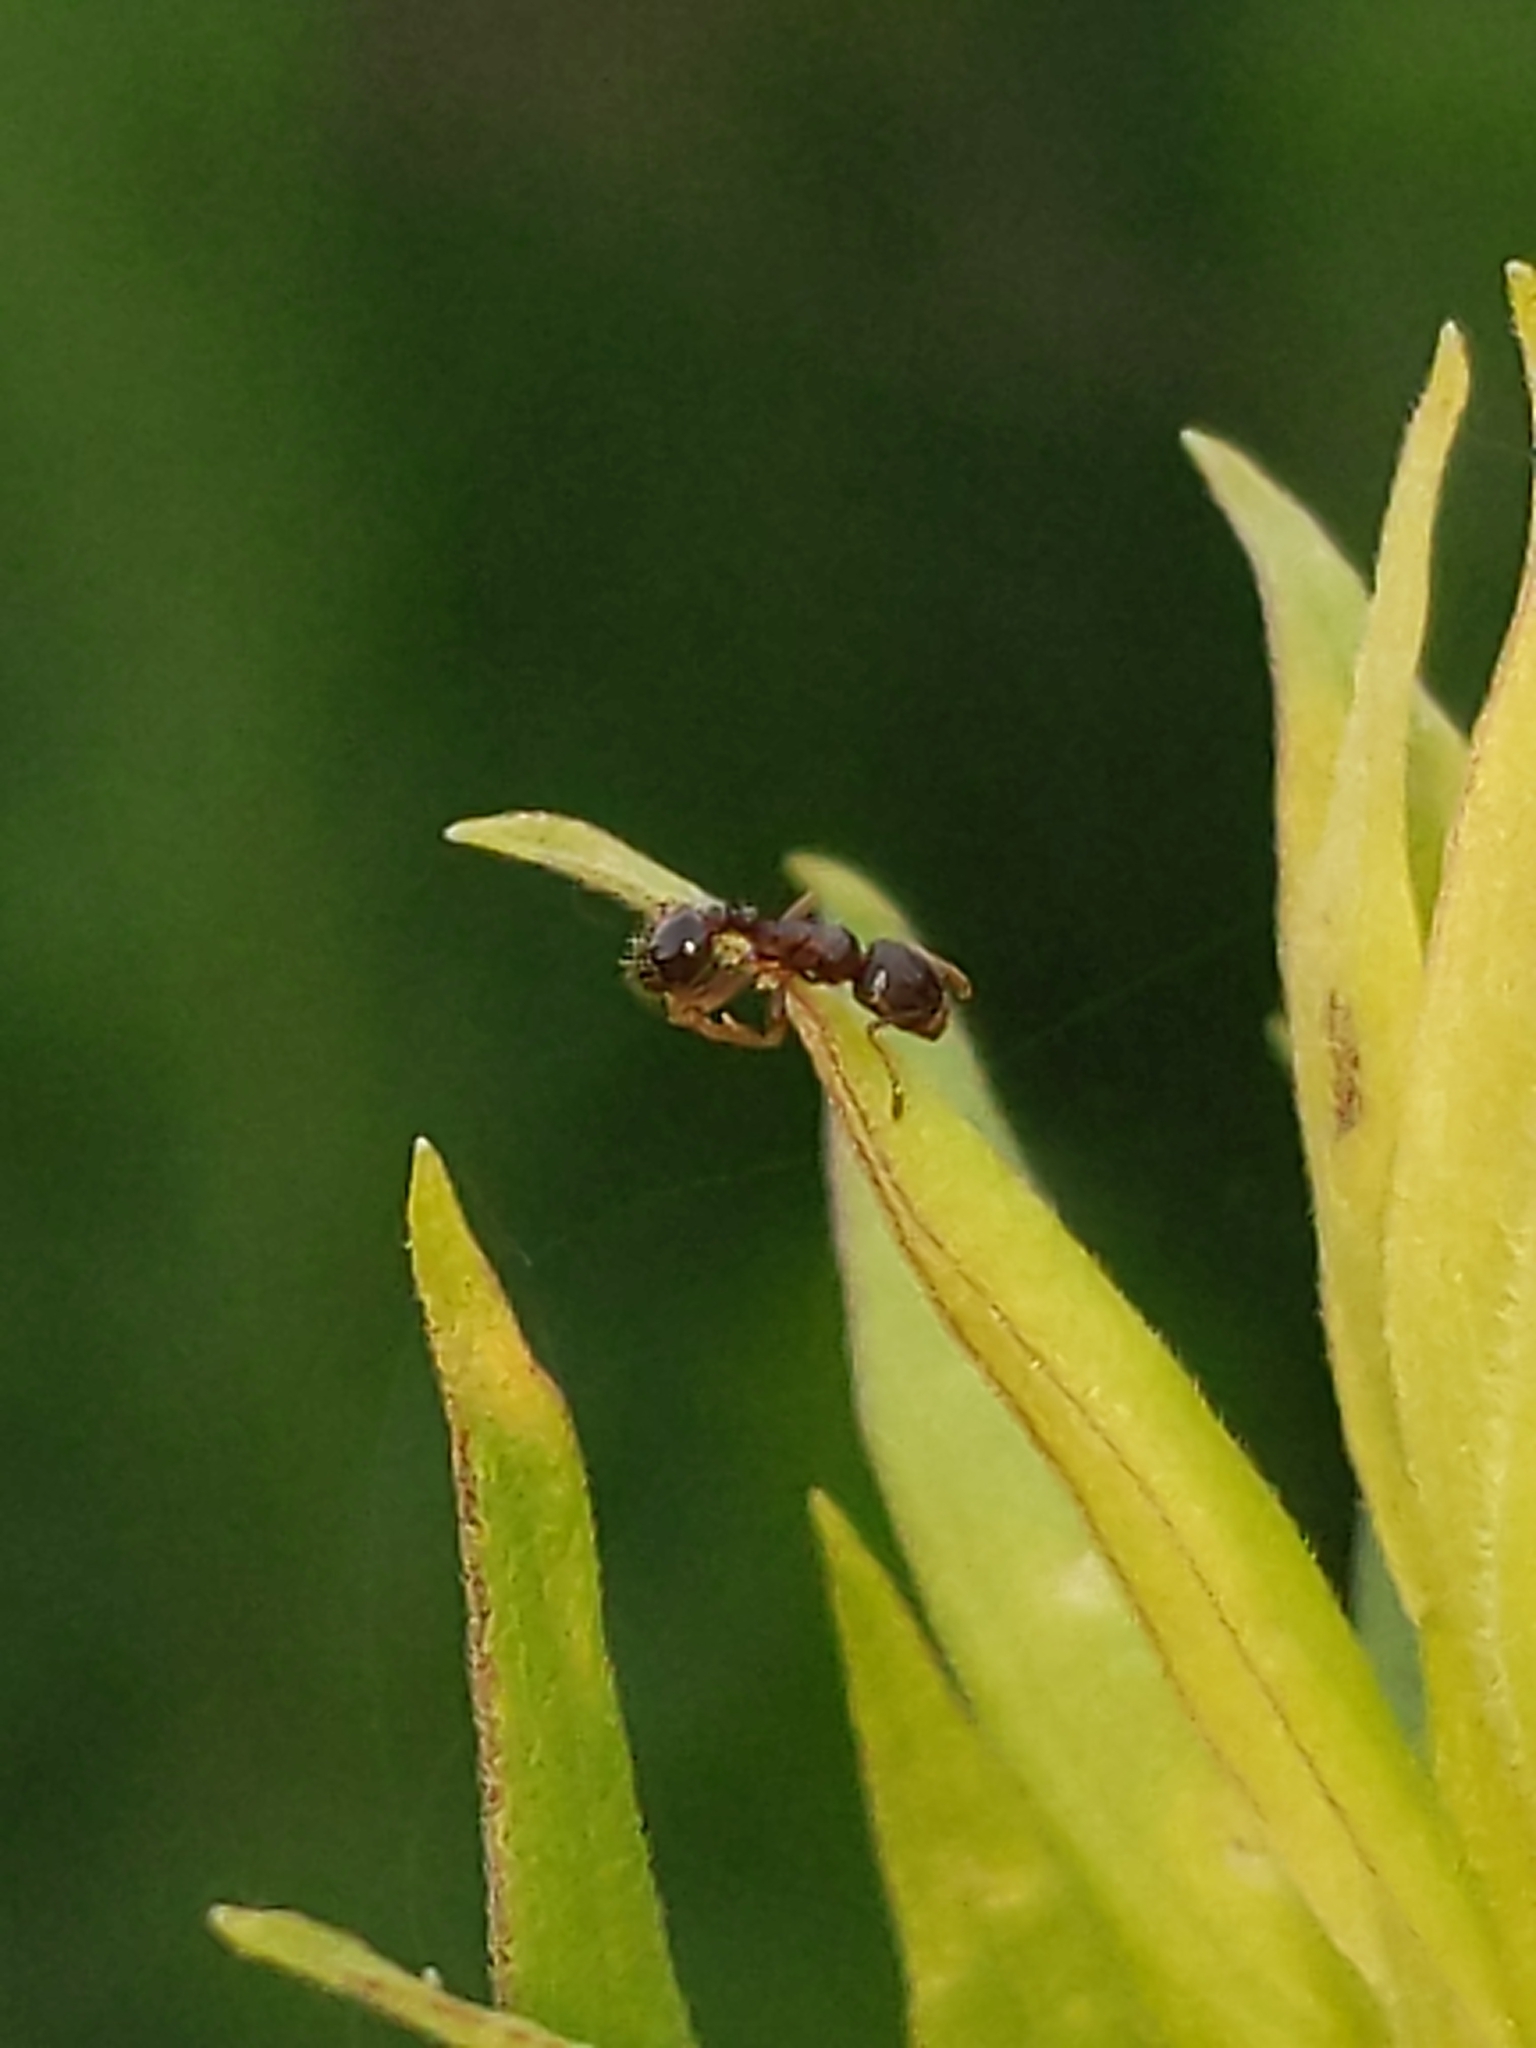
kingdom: Animalia
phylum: Arthropoda
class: Insecta
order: Hymenoptera
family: Formicidae
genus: Tetramorium
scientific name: Tetramorium immigrans
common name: Pavement ant
